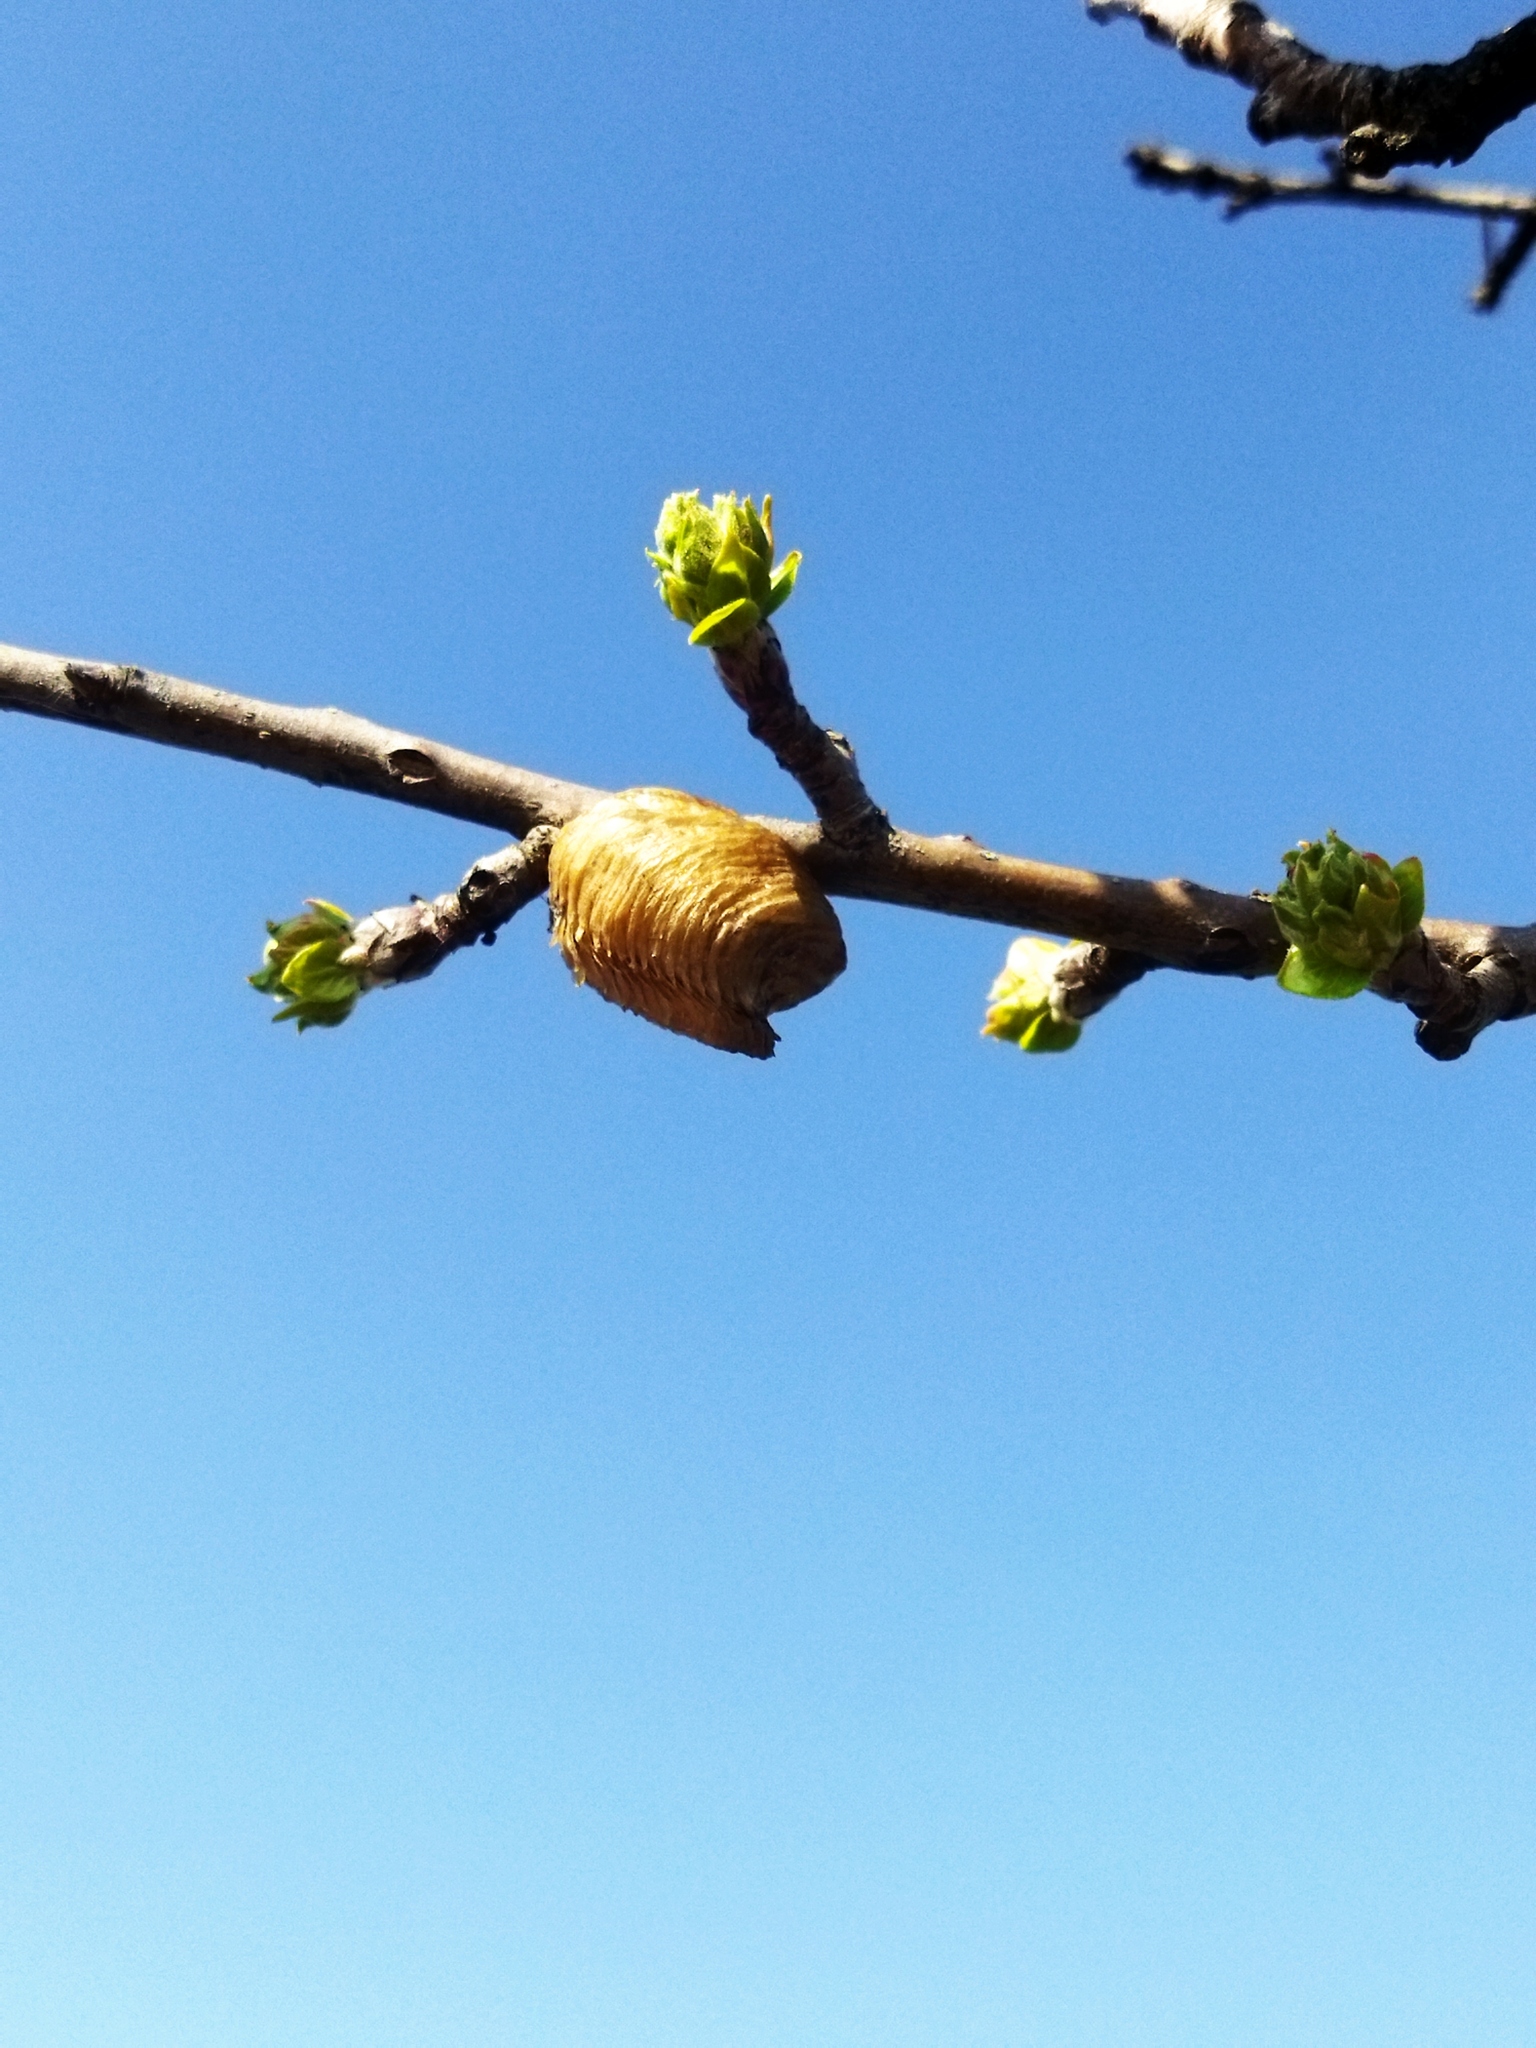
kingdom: Animalia
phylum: Arthropoda
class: Insecta
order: Mantodea
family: Mantidae
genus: Hierodula
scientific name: Hierodula transcaucasica
